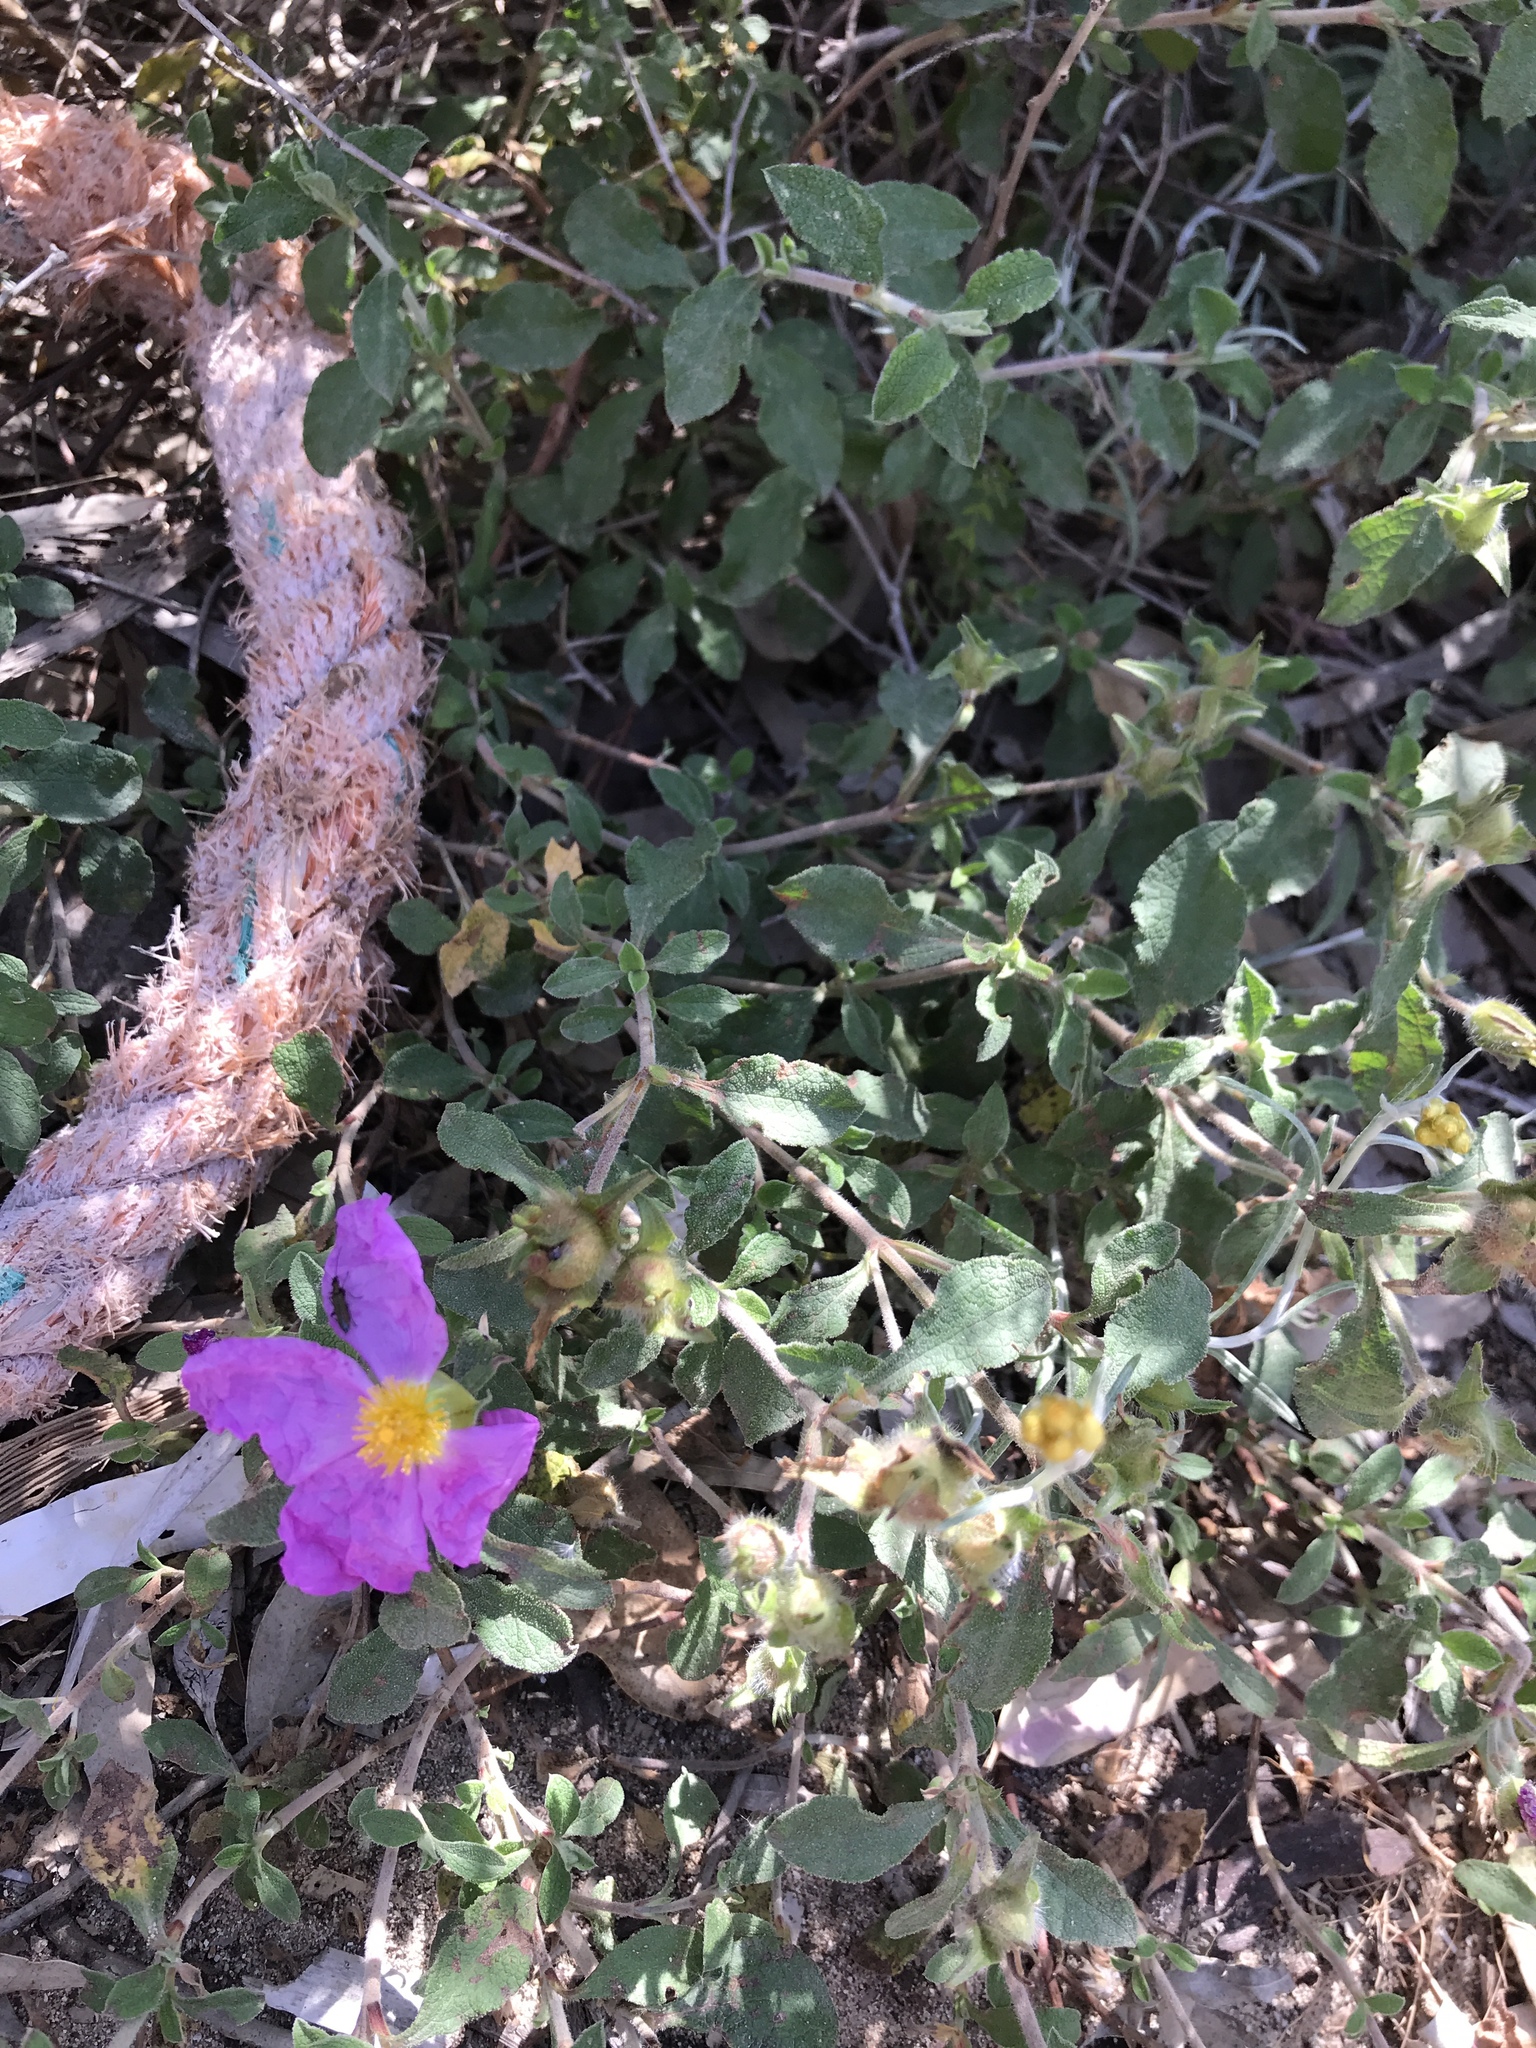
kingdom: Plantae
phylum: Tracheophyta
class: Magnoliopsida
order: Malvales
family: Cistaceae
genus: Cistus
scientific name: Cistus creticus
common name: Cretan rockrose
